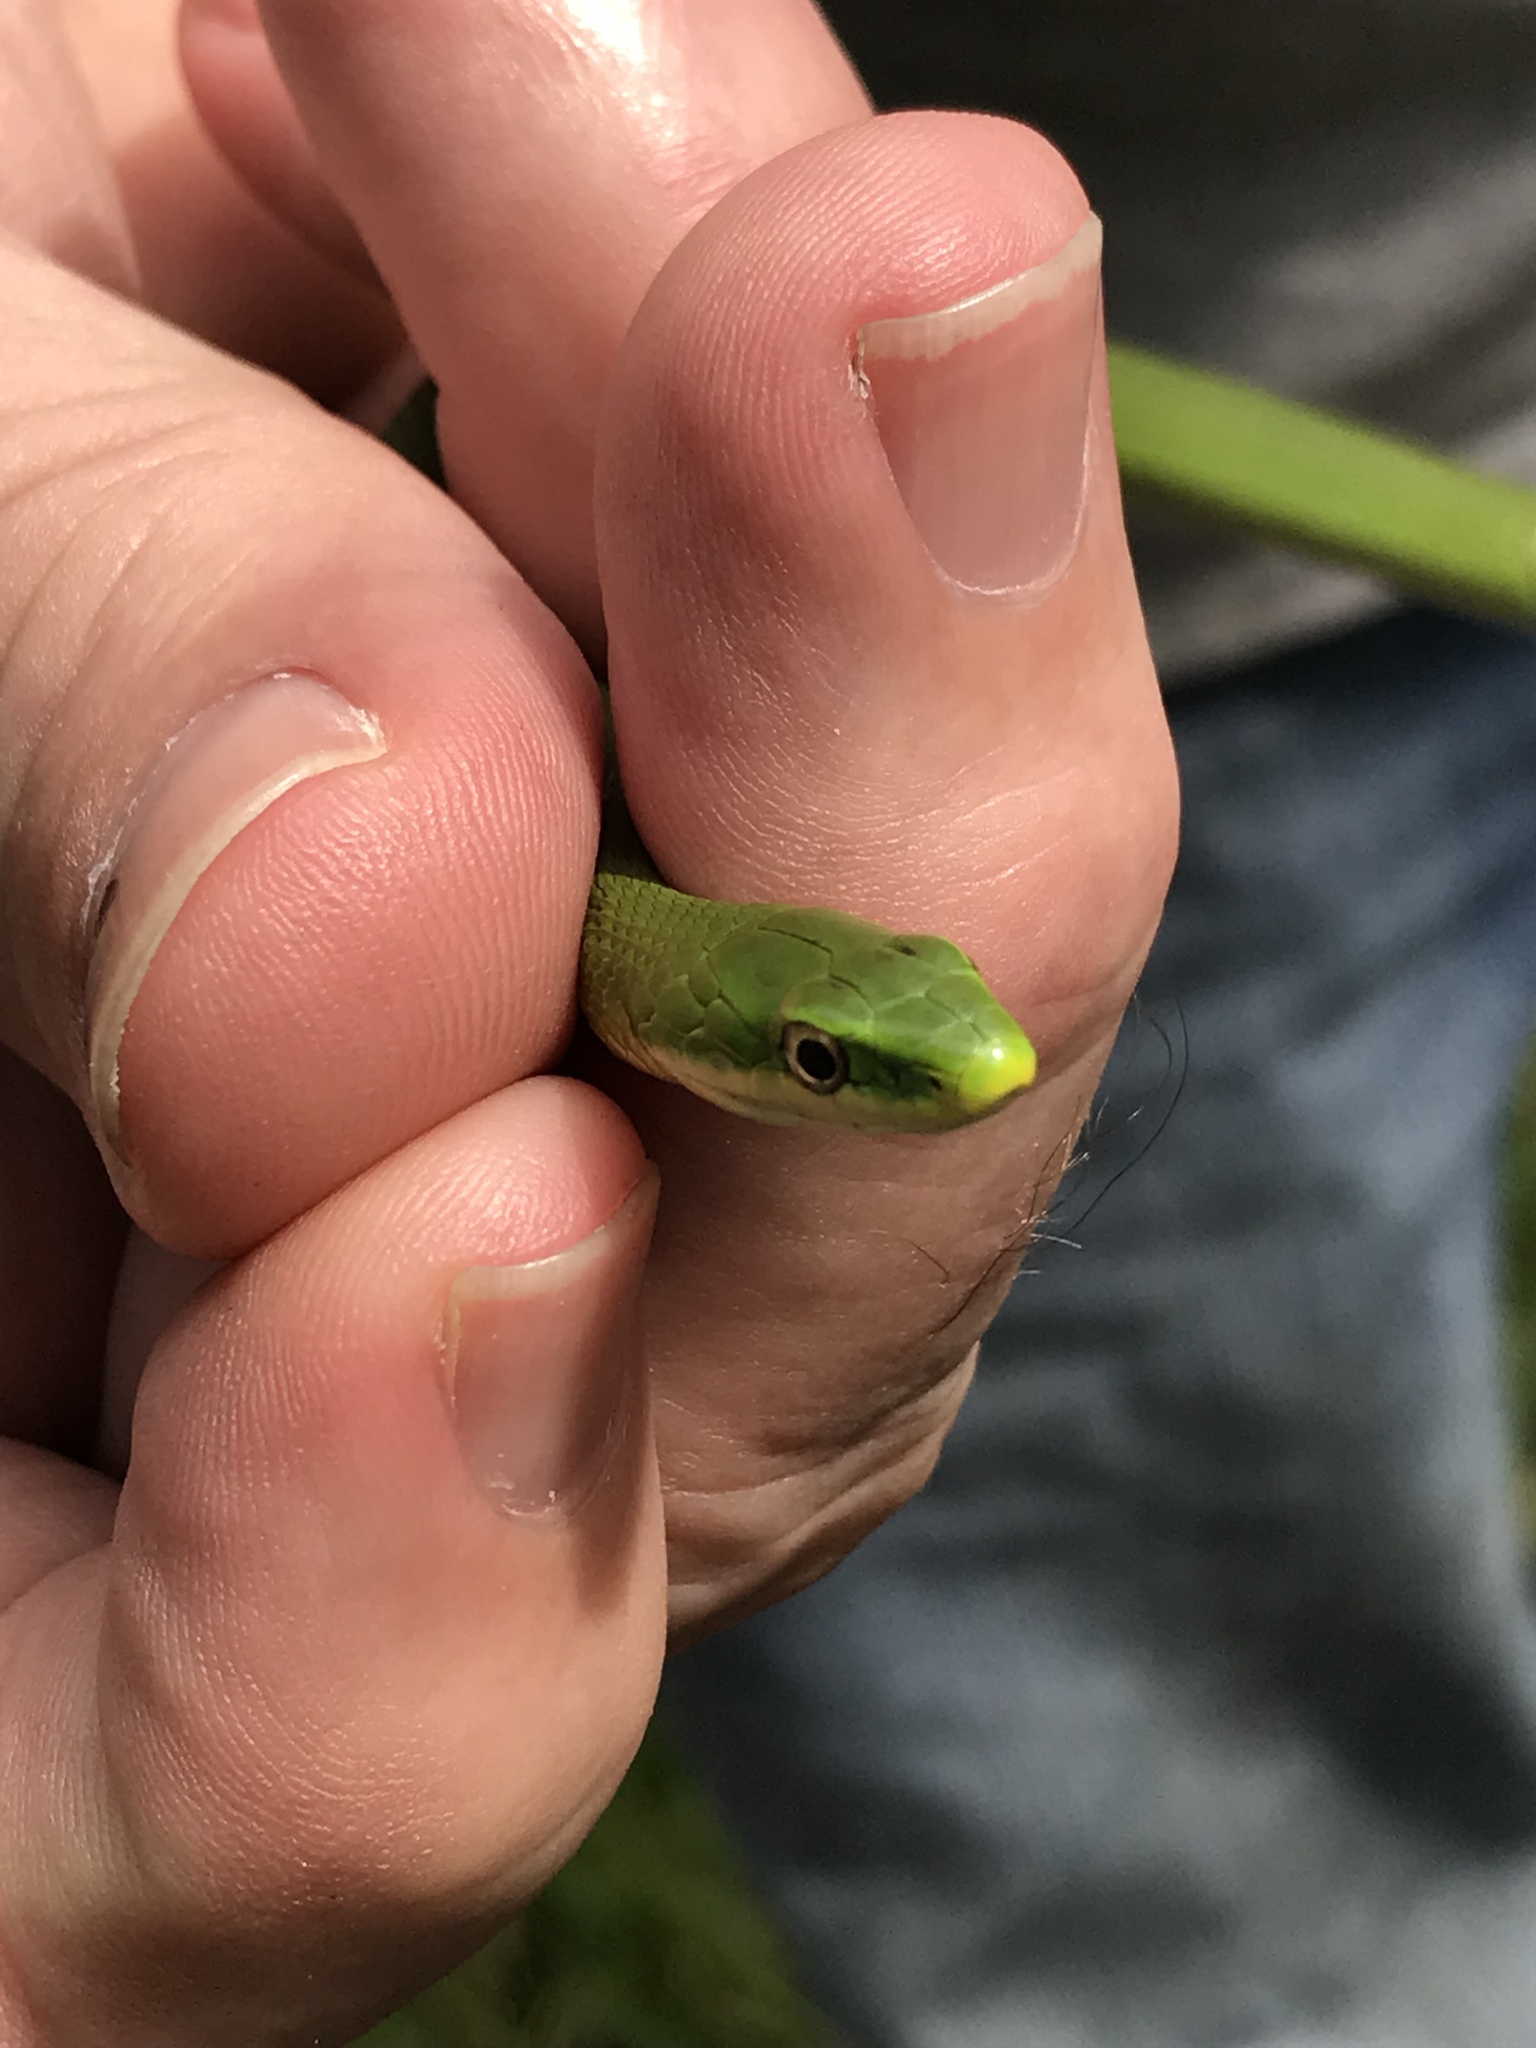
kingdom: Animalia
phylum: Chordata
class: Squamata
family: Colubridae
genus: Opheodrys
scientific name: Opheodrys aestivus
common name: Rough greensnake
